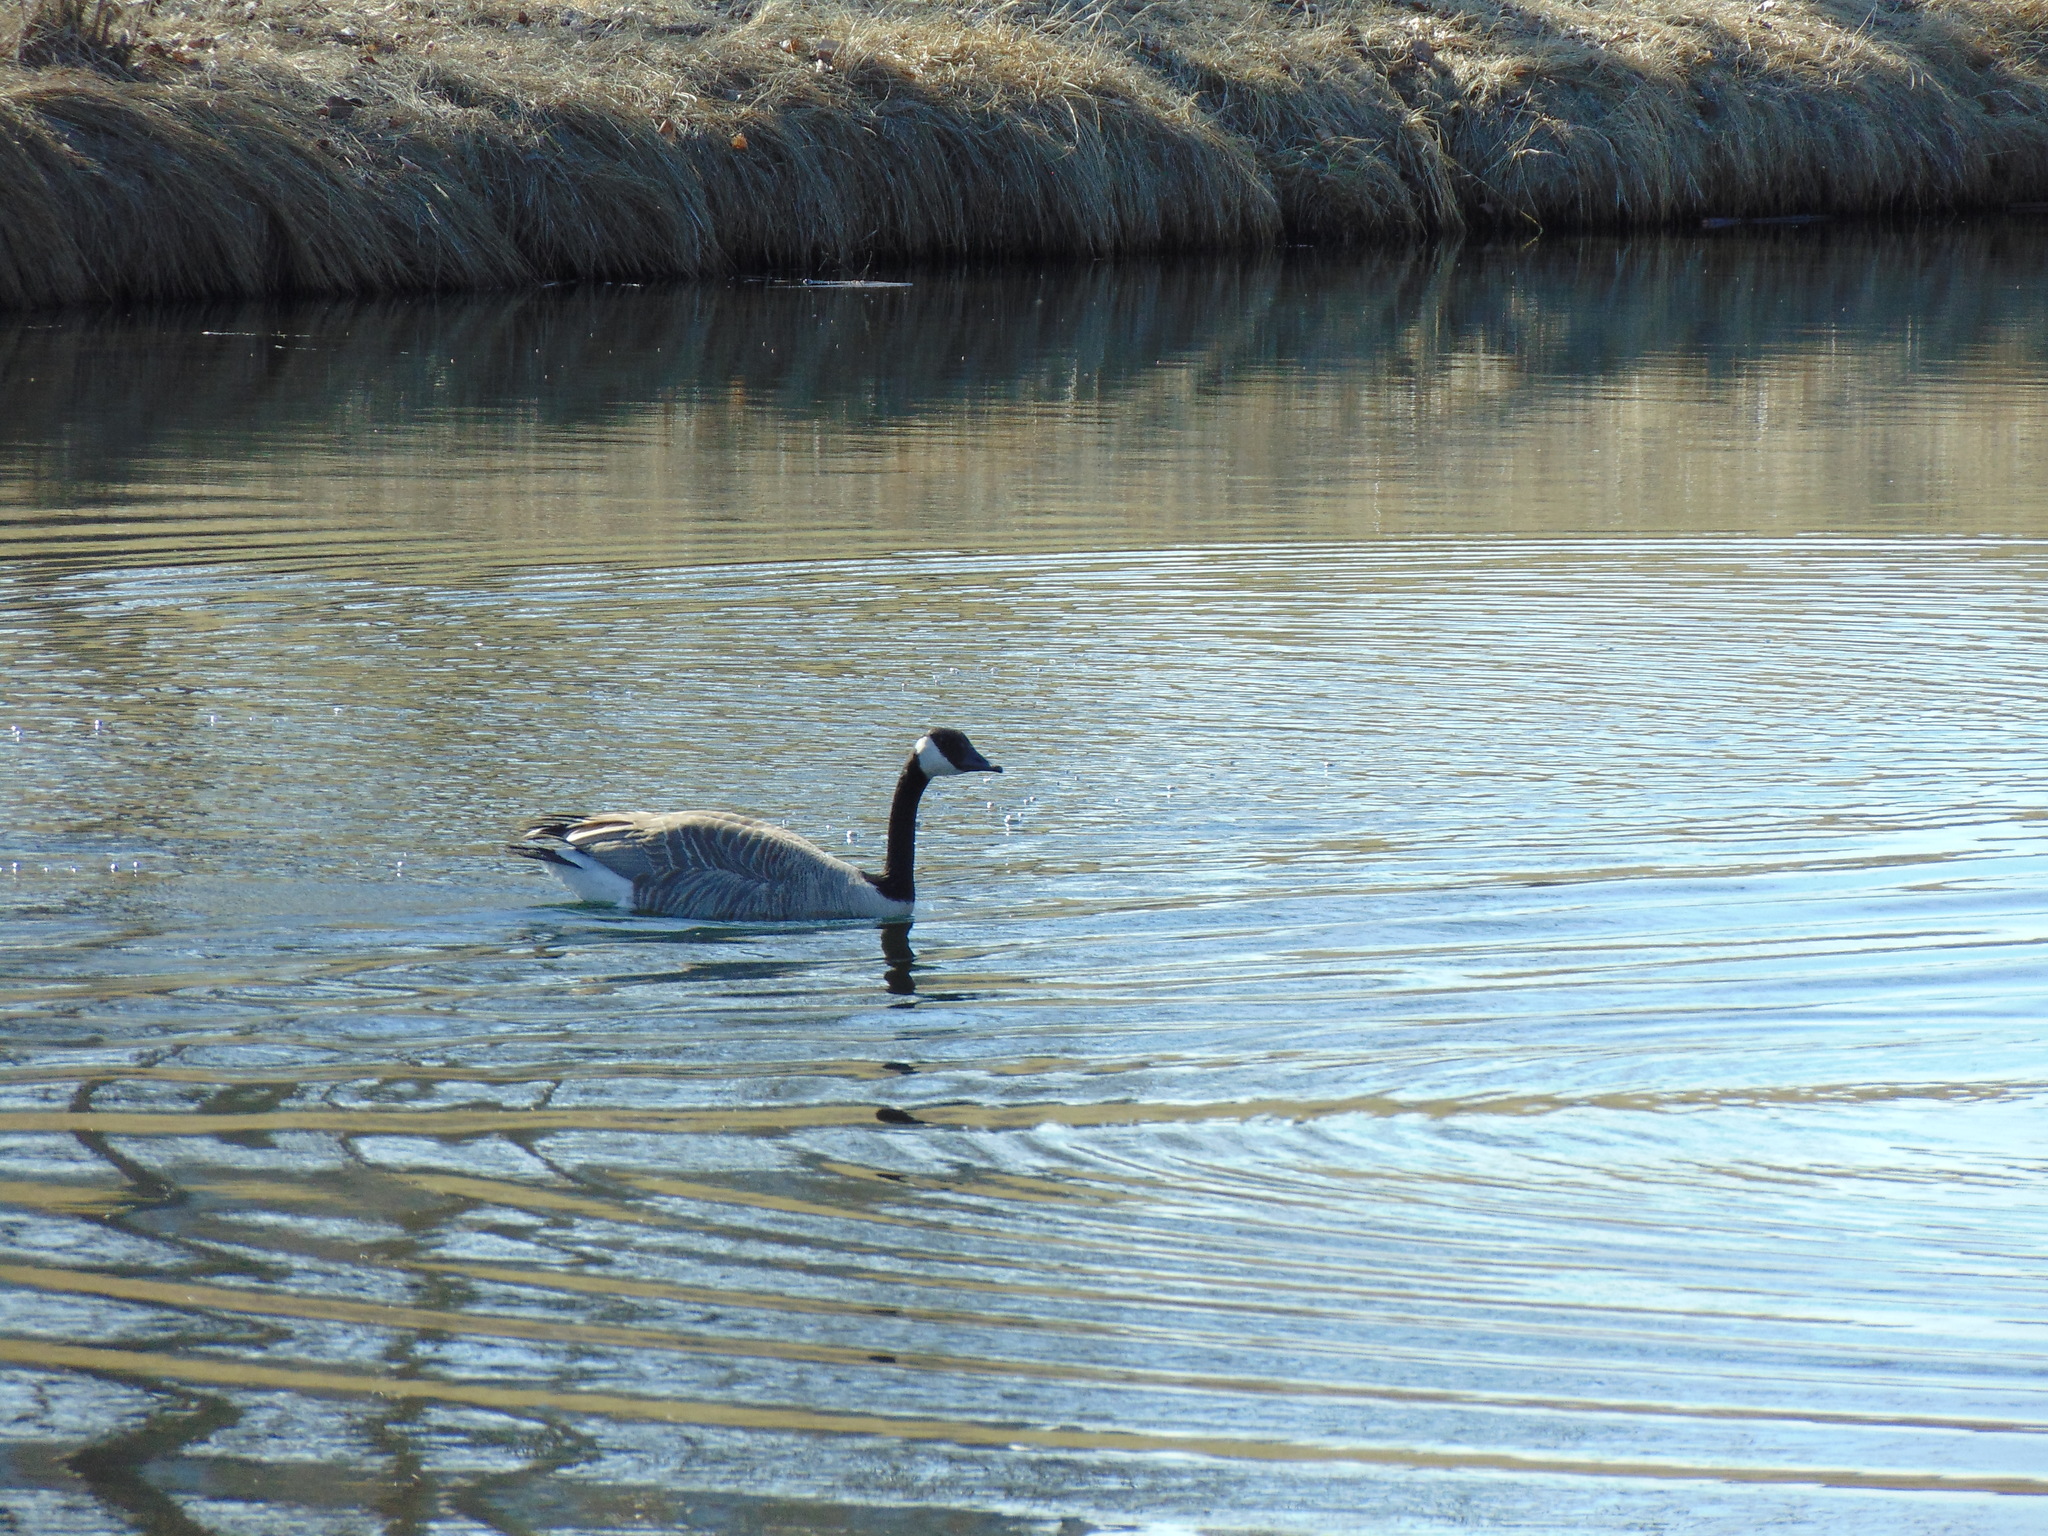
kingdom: Animalia
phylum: Chordata
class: Aves
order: Anseriformes
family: Anatidae
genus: Branta
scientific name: Branta canadensis
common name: Canada goose
